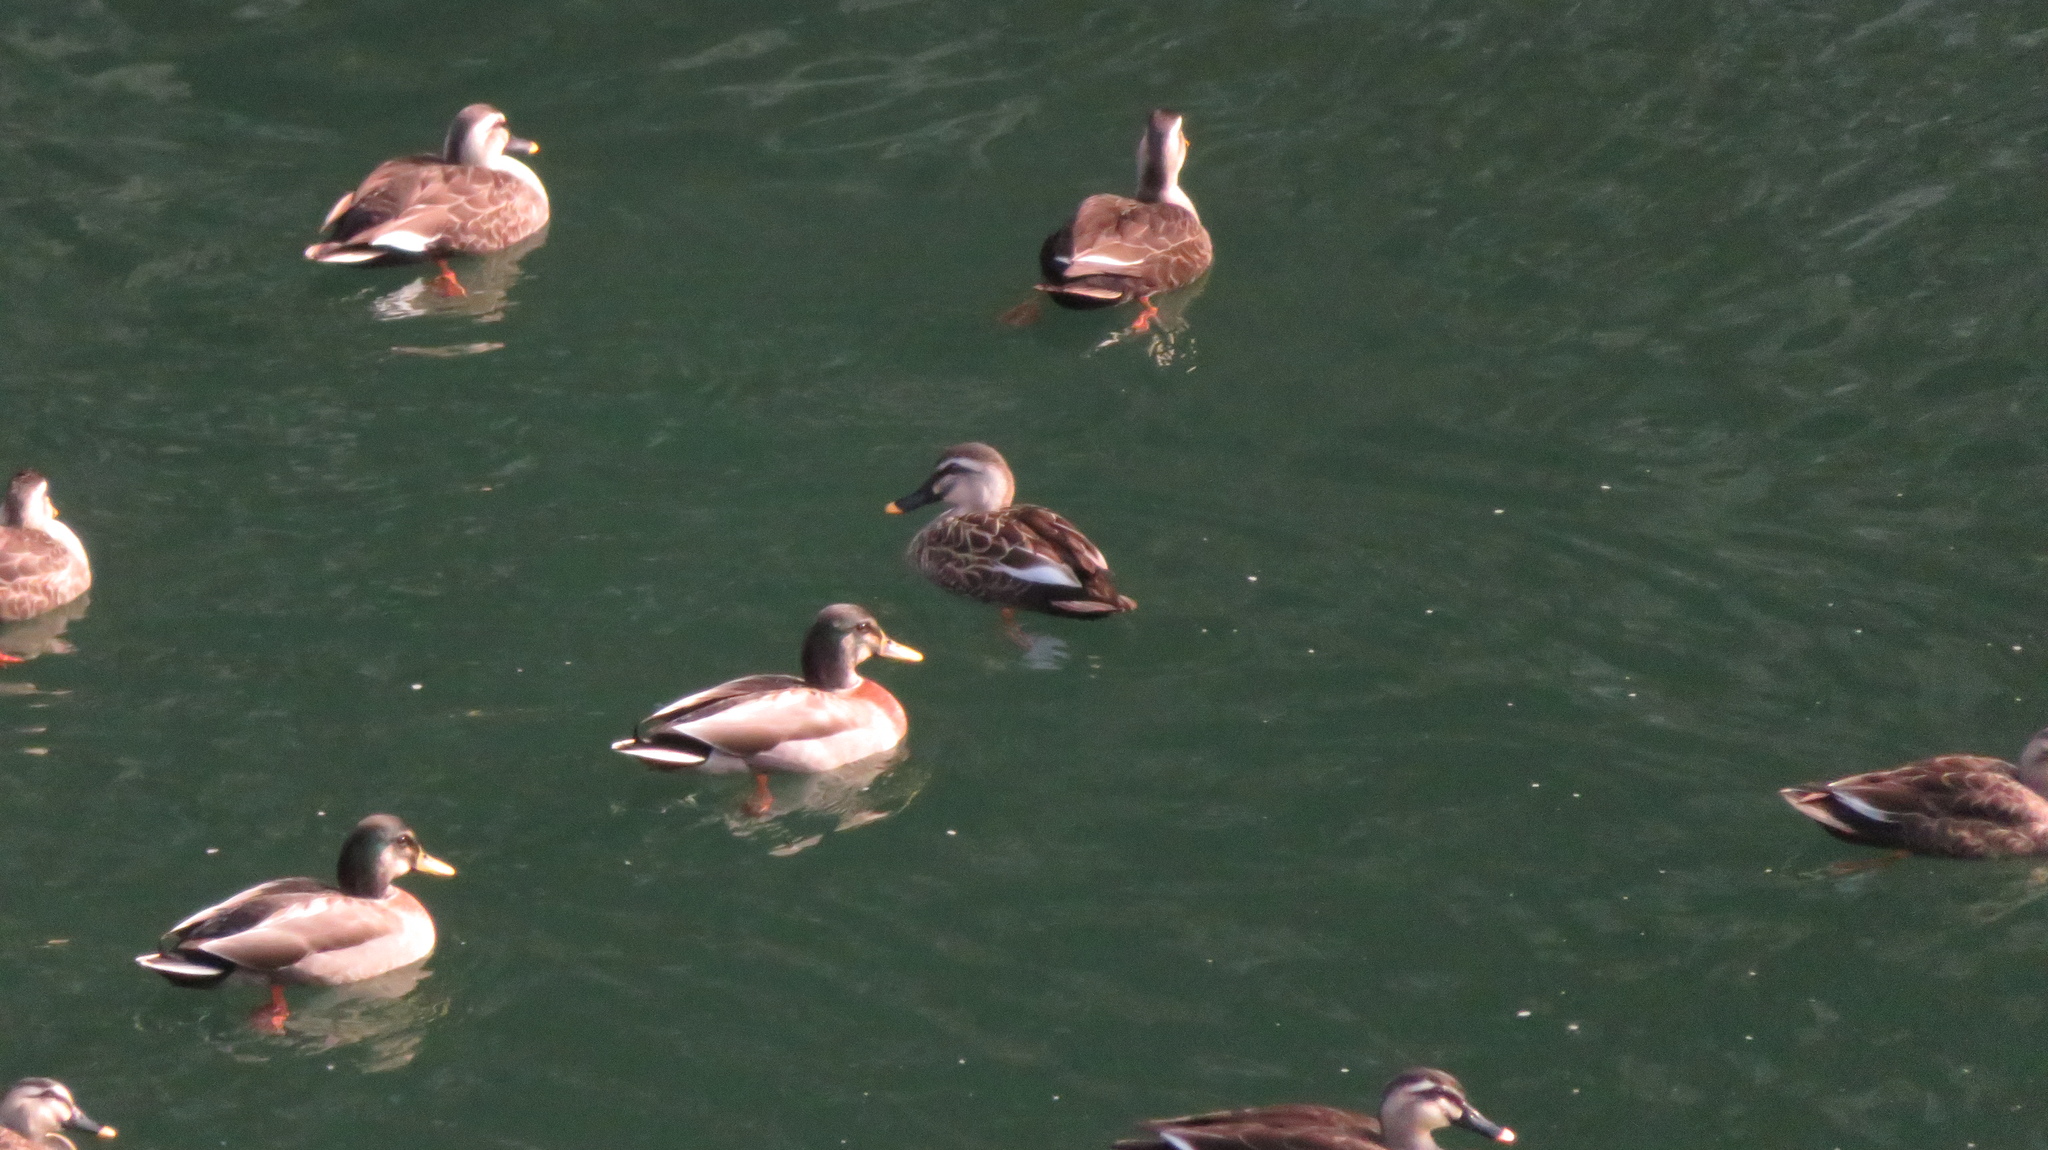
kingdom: Animalia
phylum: Chordata
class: Aves
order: Anseriformes
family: Anatidae
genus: Anas
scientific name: Anas zonorhyncha
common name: Eastern spot-billed duck
